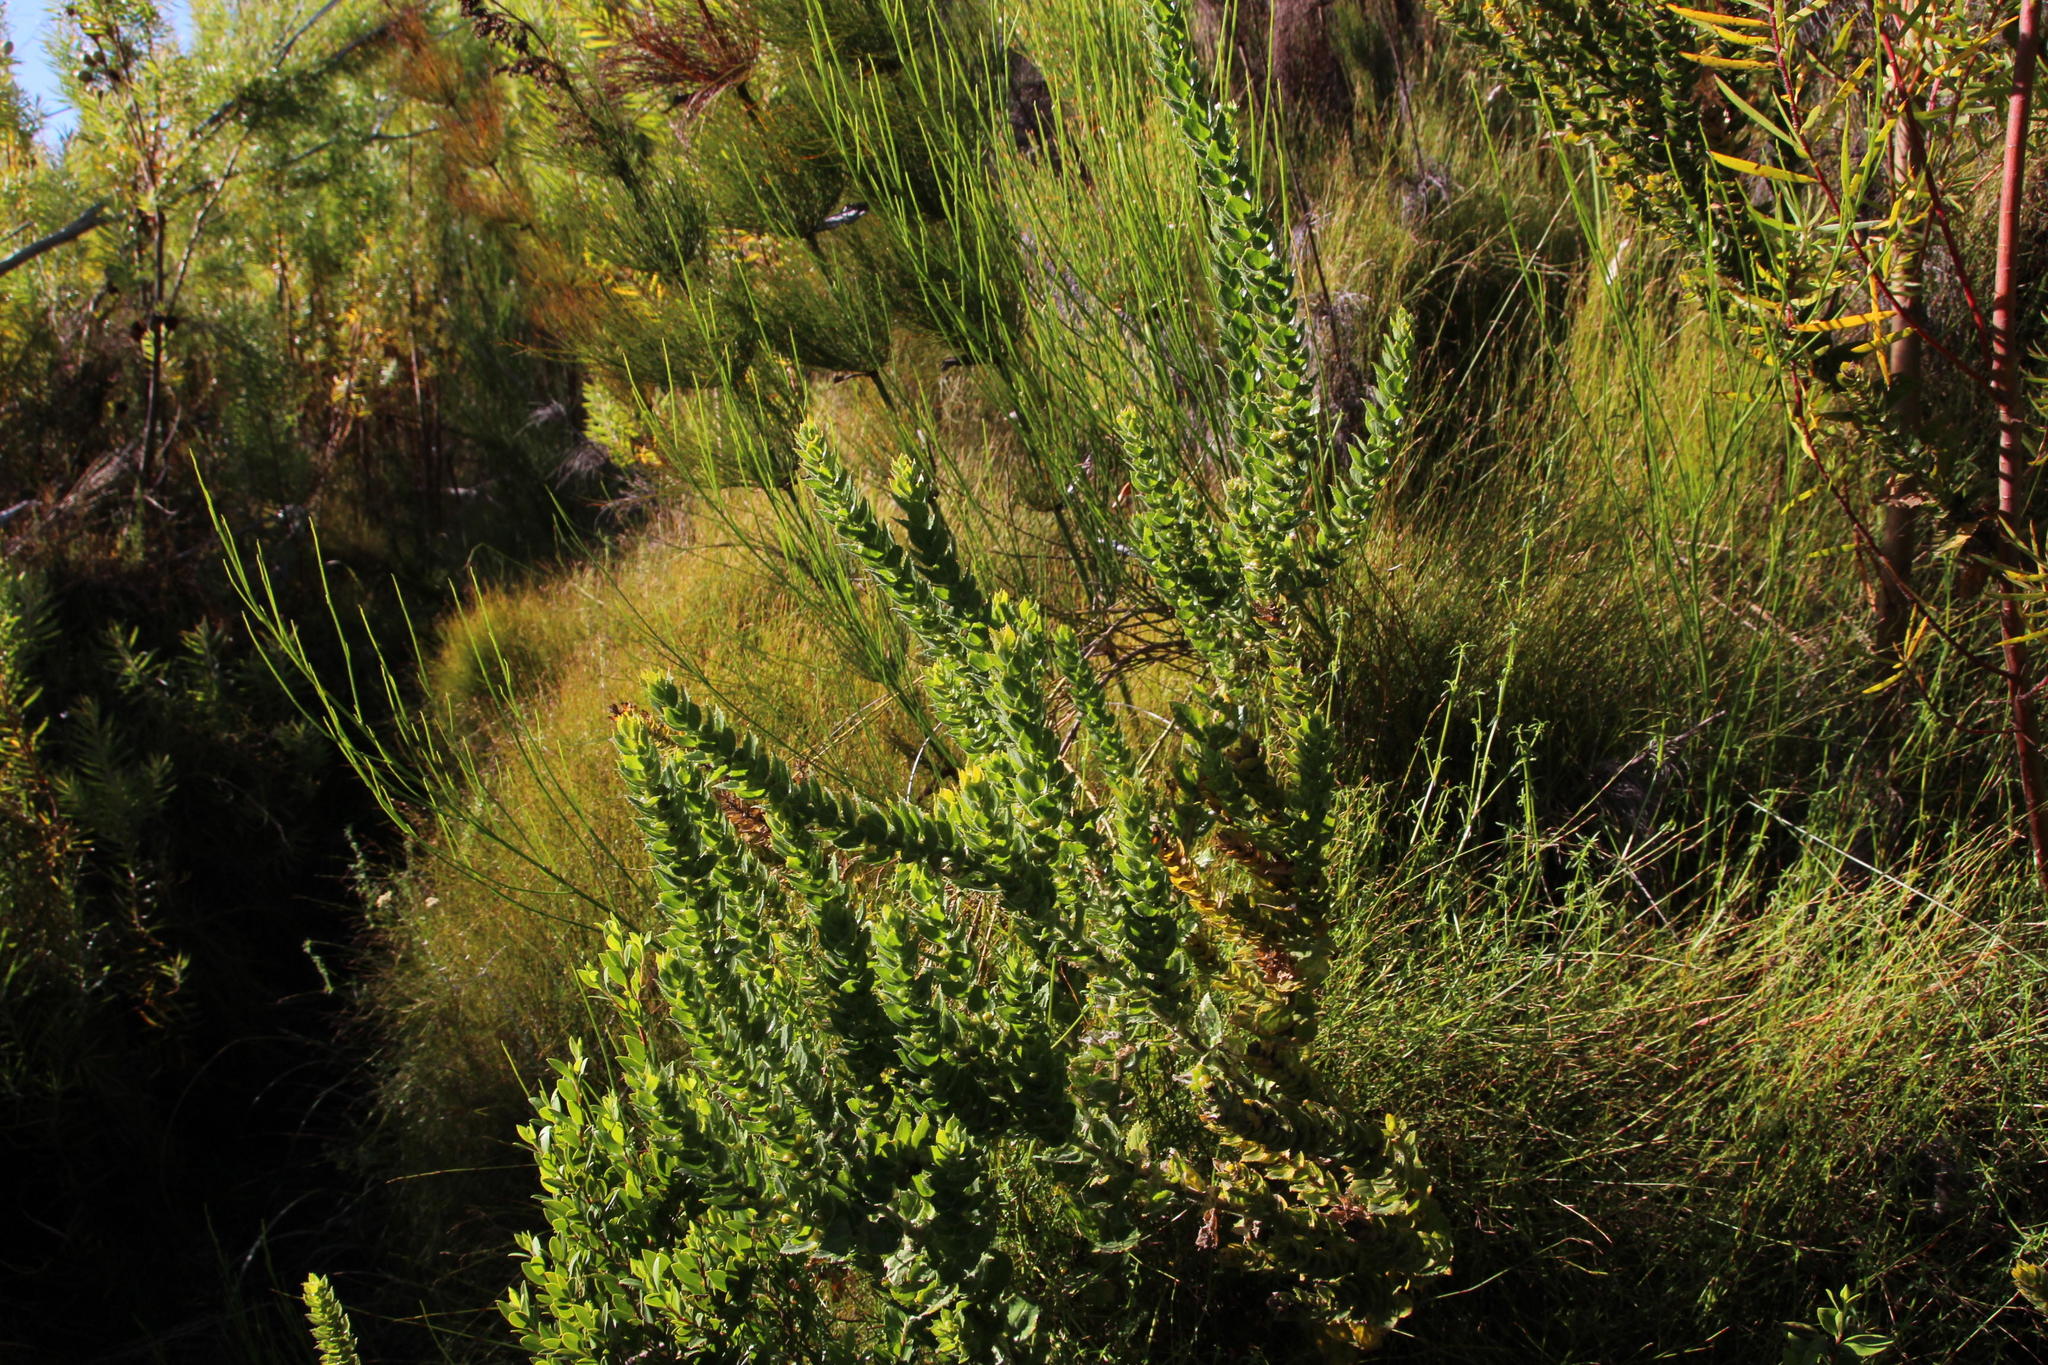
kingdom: Plantae
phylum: Tracheophyta
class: Magnoliopsida
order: Lamiales
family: Scrophulariaceae
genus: Oftia
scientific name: Oftia africana
